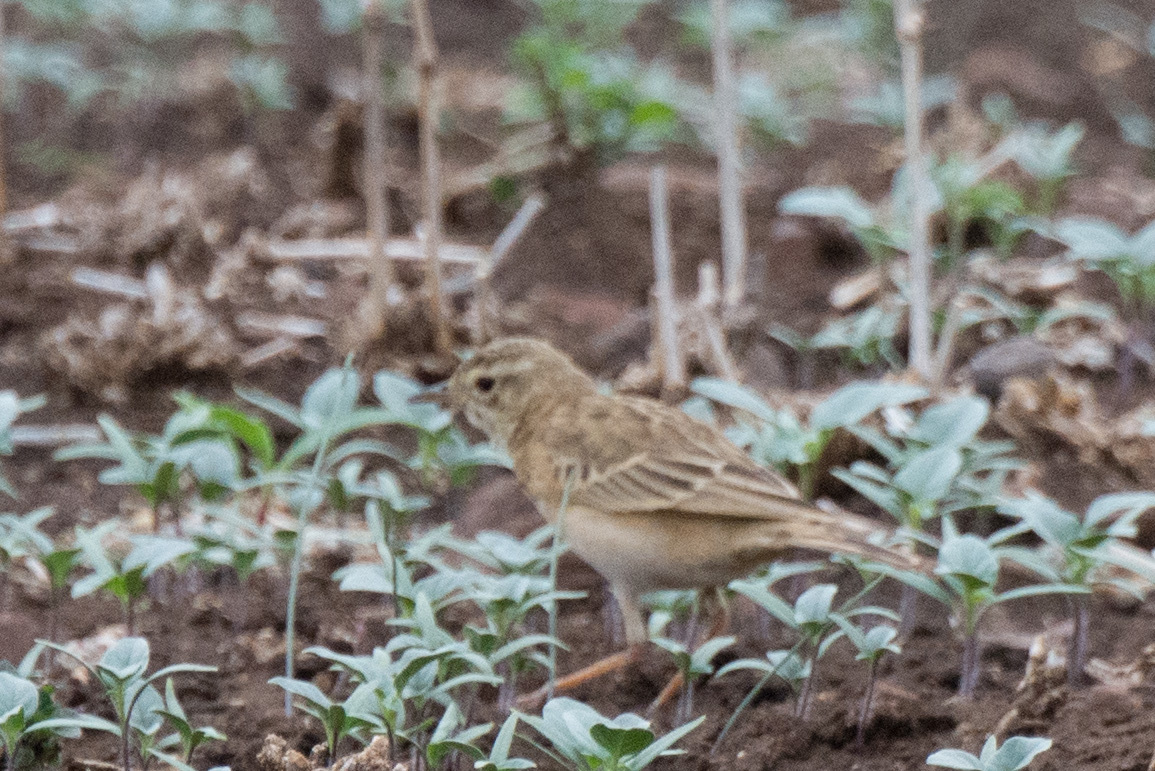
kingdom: Animalia
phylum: Chordata
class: Aves
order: Passeriformes
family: Motacillidae
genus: Anthus
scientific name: Anthus cinnamomeus
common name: African pipit
